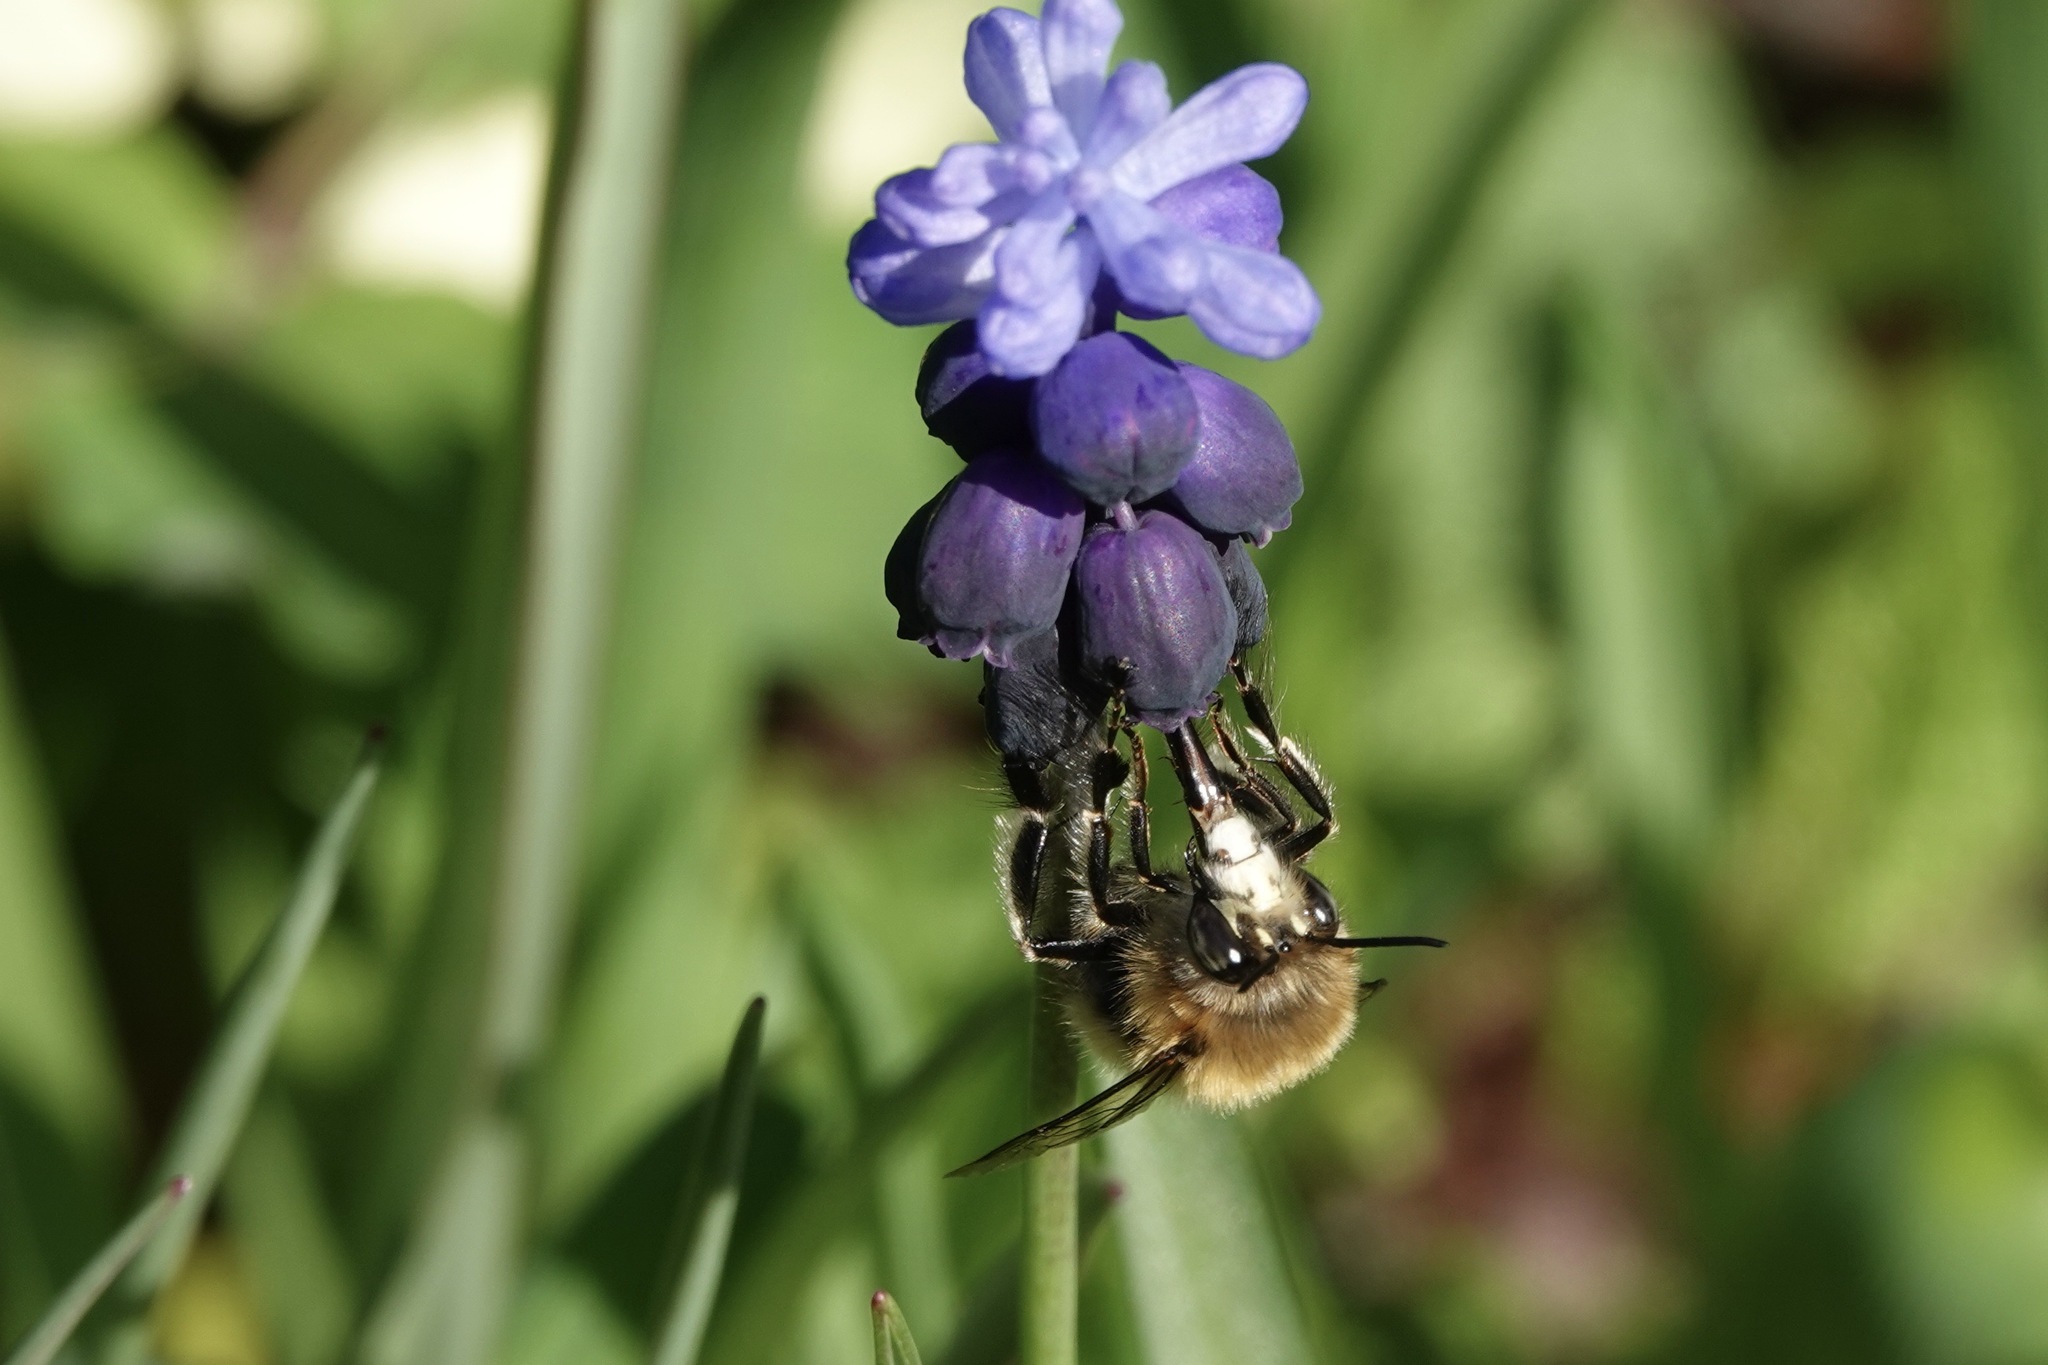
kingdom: Animalia
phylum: Arthropoda
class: Insecta
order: Hymenoptera
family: Apidae
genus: Anthophora
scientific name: Anthophora plumipes
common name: Hairy-footed flower bee
